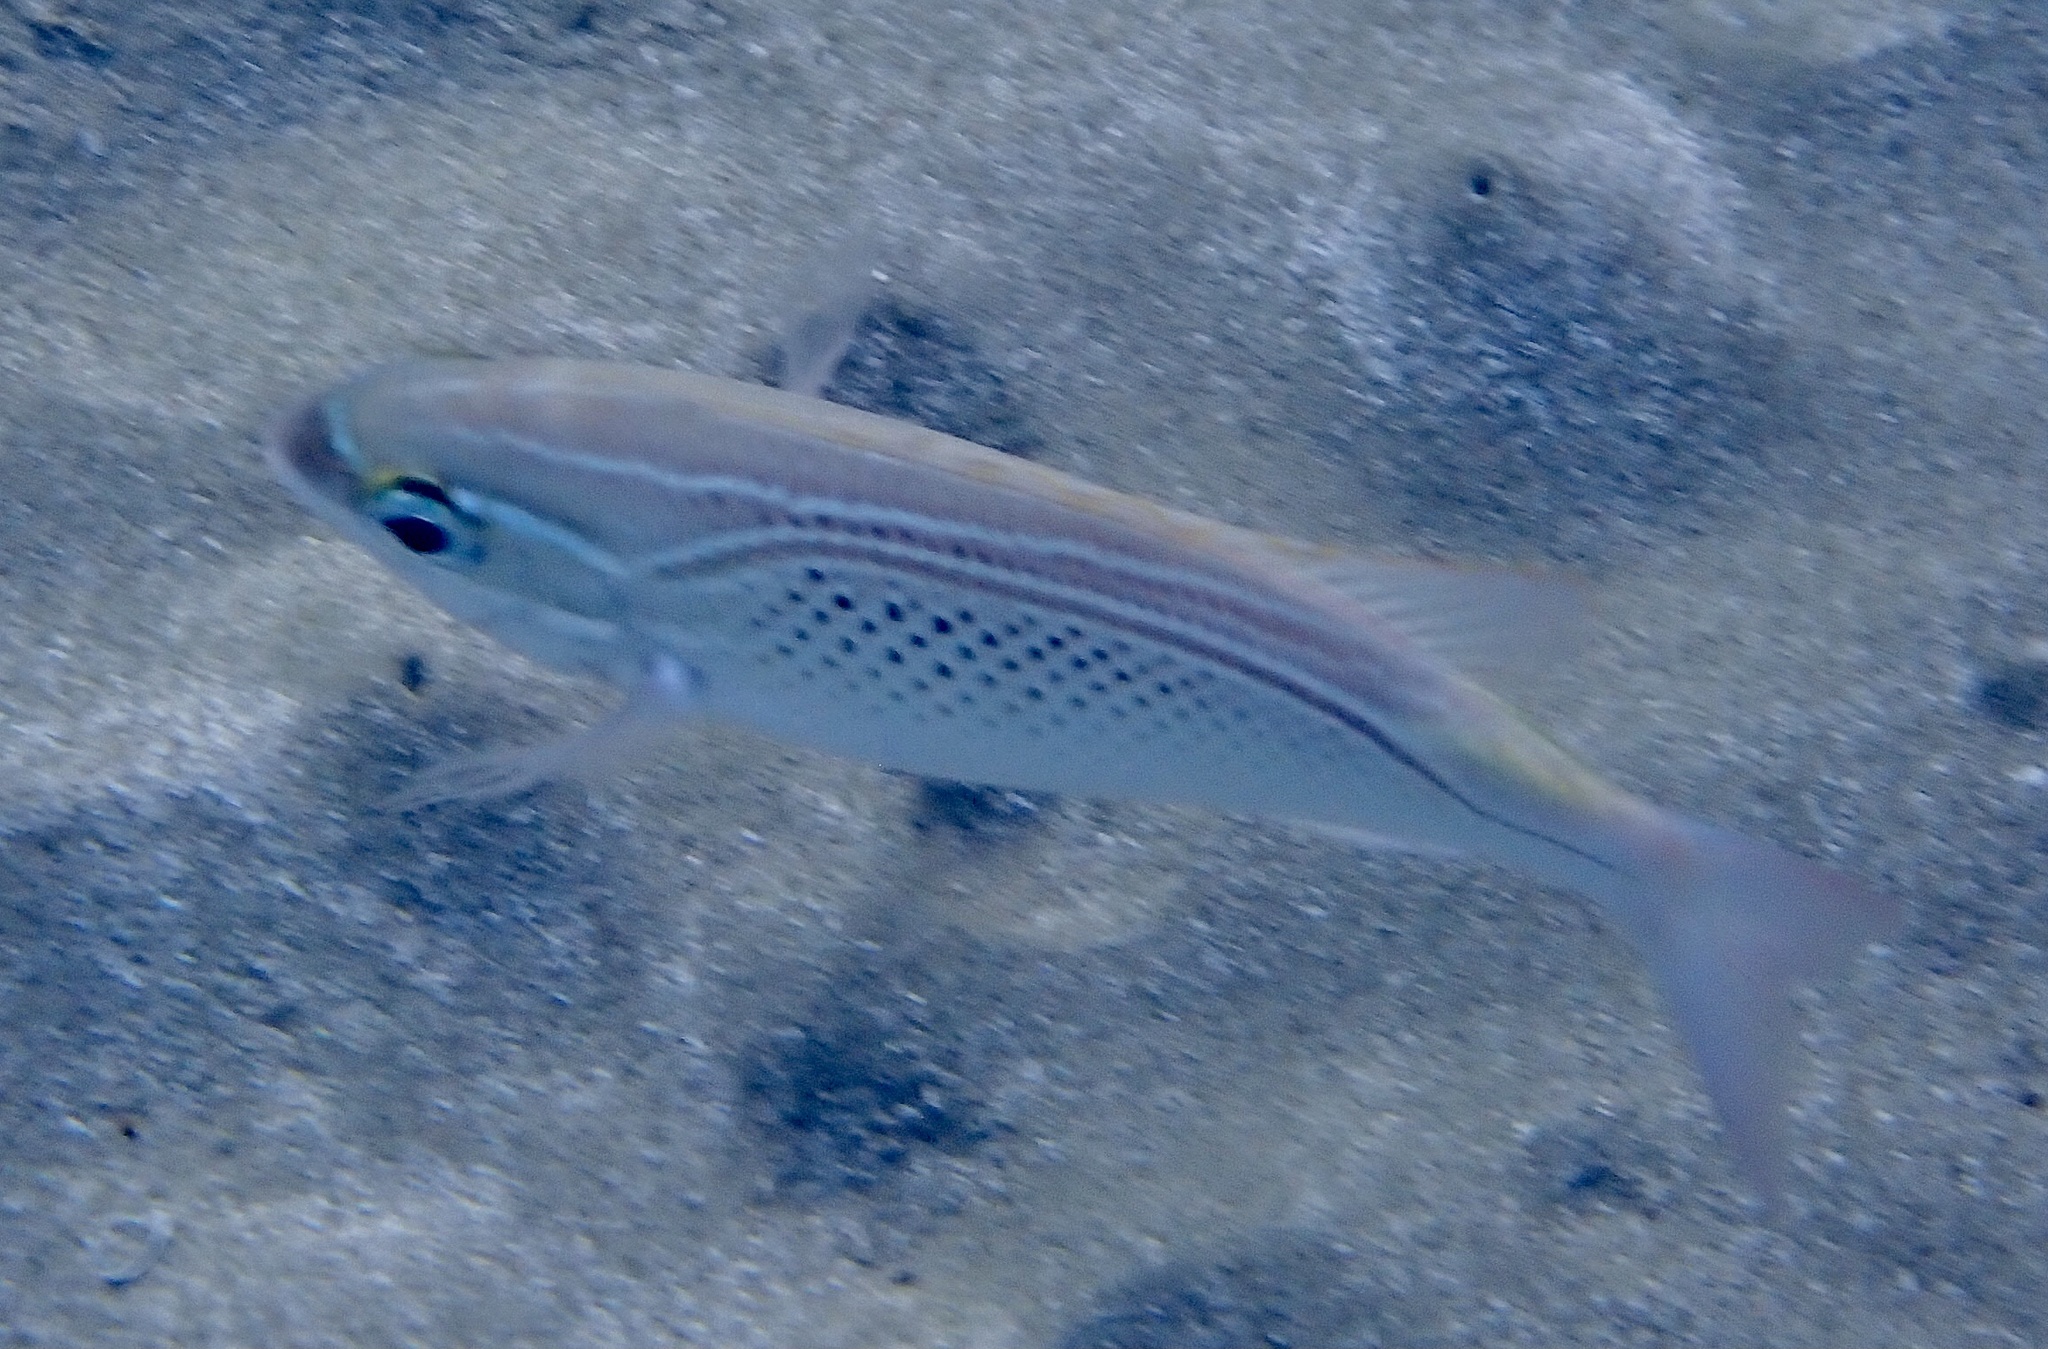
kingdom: Animalia
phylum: Chordata
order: Perciformes
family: Nemipteridae
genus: Scolopsis
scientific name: Scolopsis ghanam
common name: Arabian monocle bream
